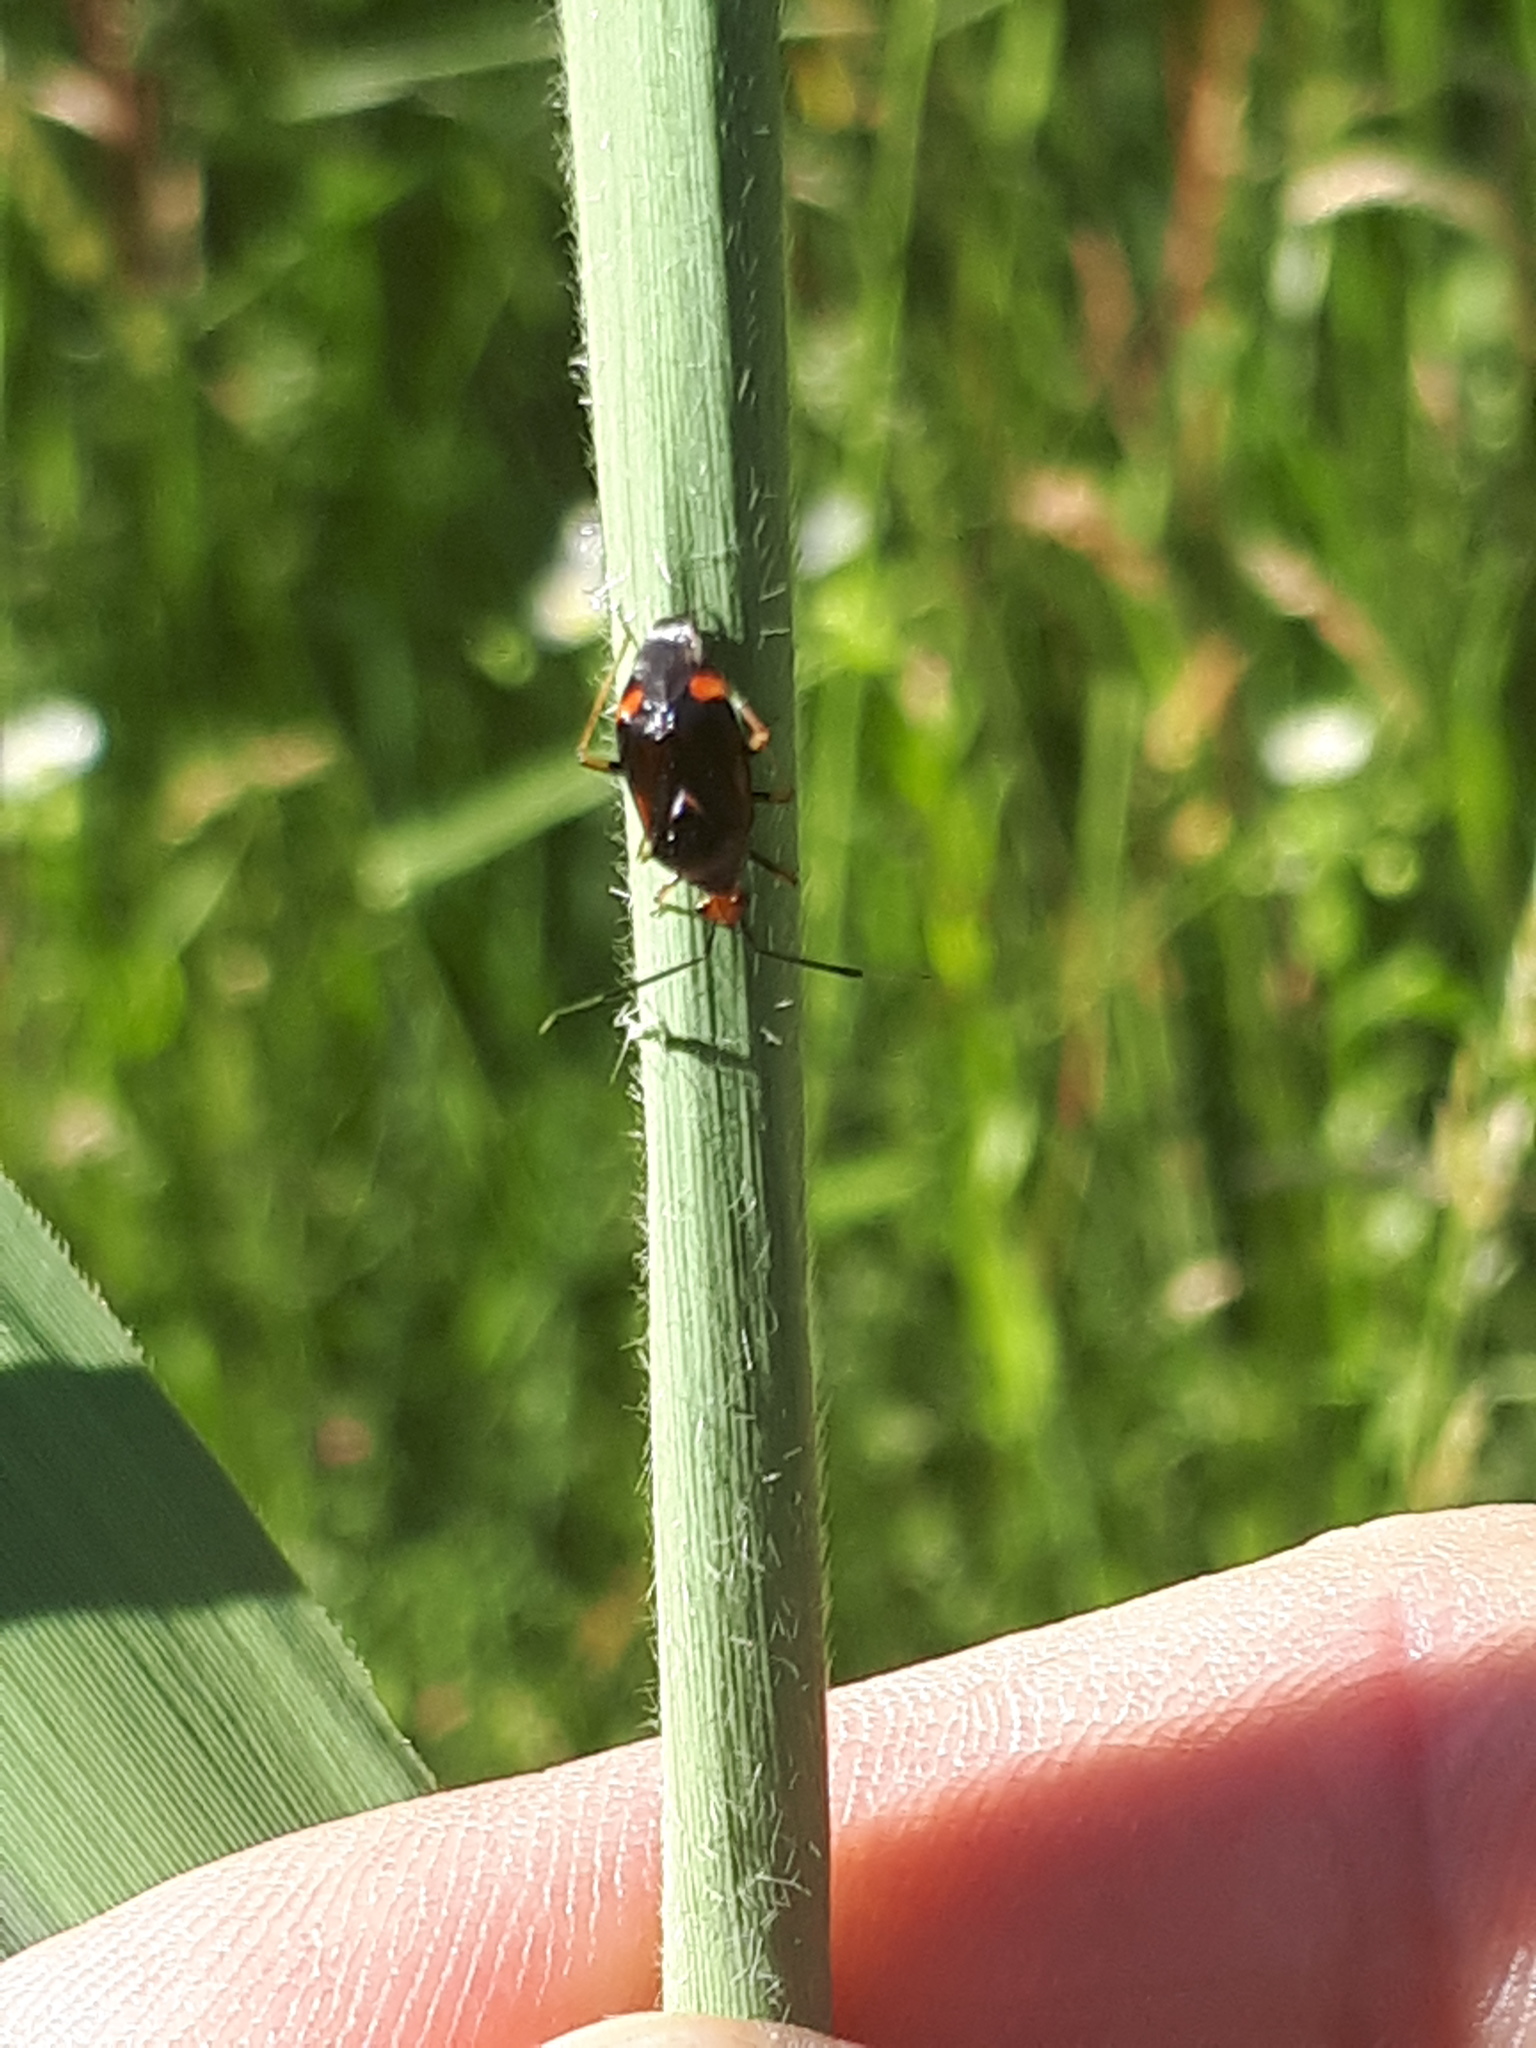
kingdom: Animalia
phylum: Arthropoda
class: Insecta
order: Hemiptera
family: Miridae
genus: Deraeocoris
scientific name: Deraeocoris ruber
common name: Plant bug
